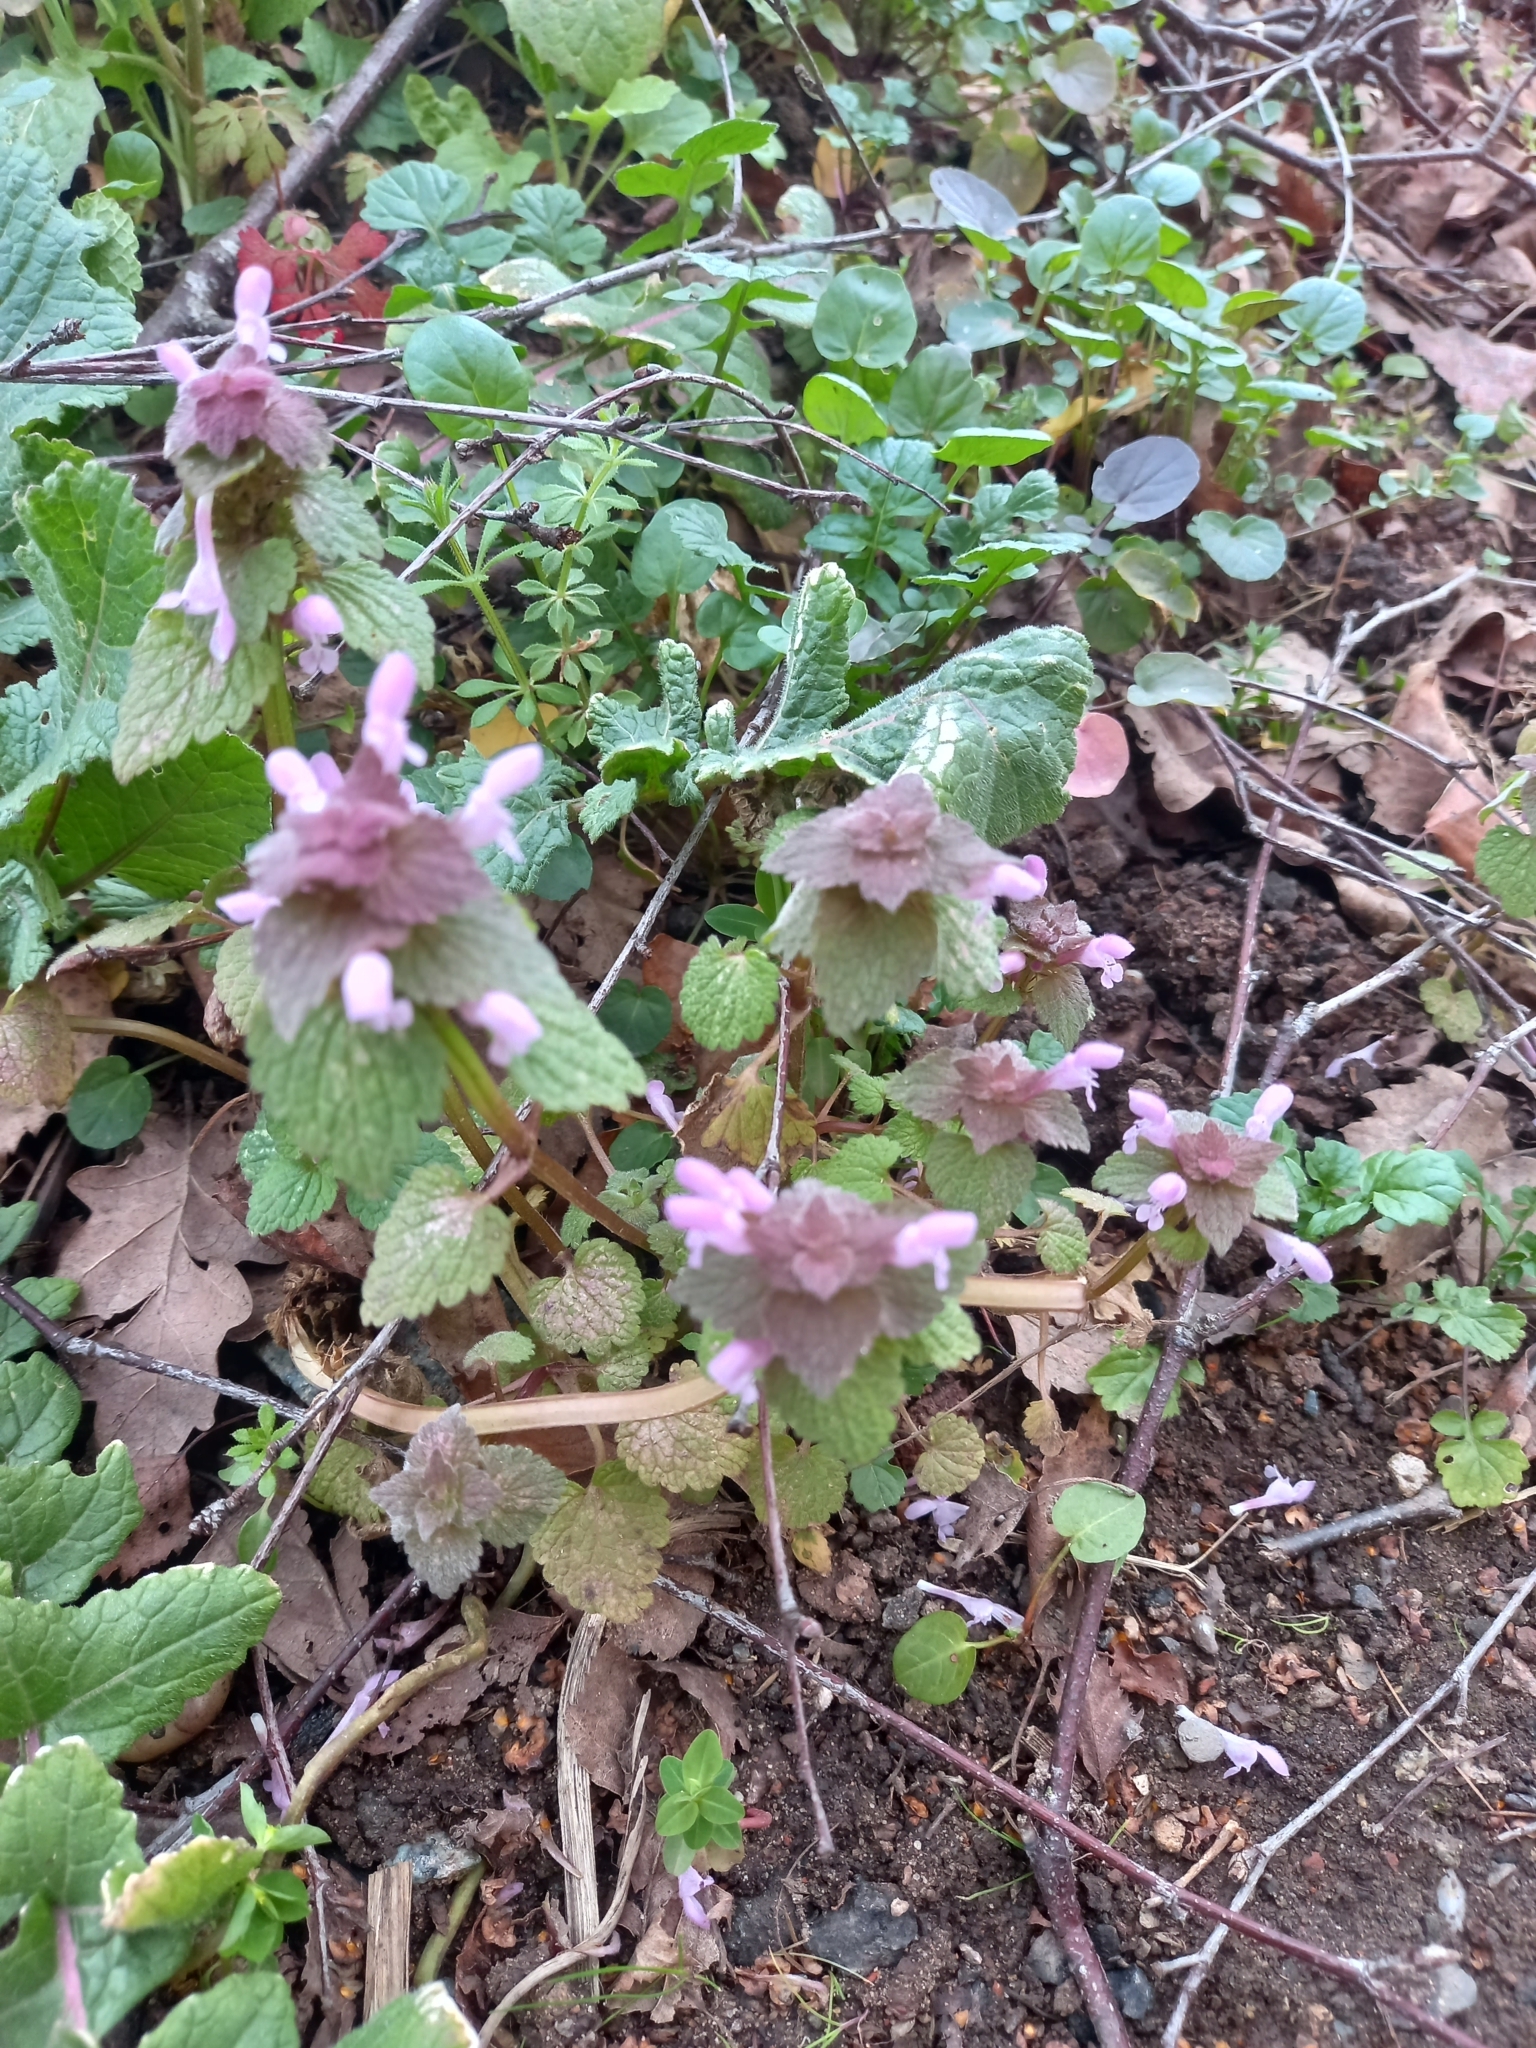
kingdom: Plantae
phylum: Tracheophyta
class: Magnoliopsida
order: Lamiales
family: Lamiaceae
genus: Lamium
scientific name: Lamium purpureum
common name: Red dead-nettle
